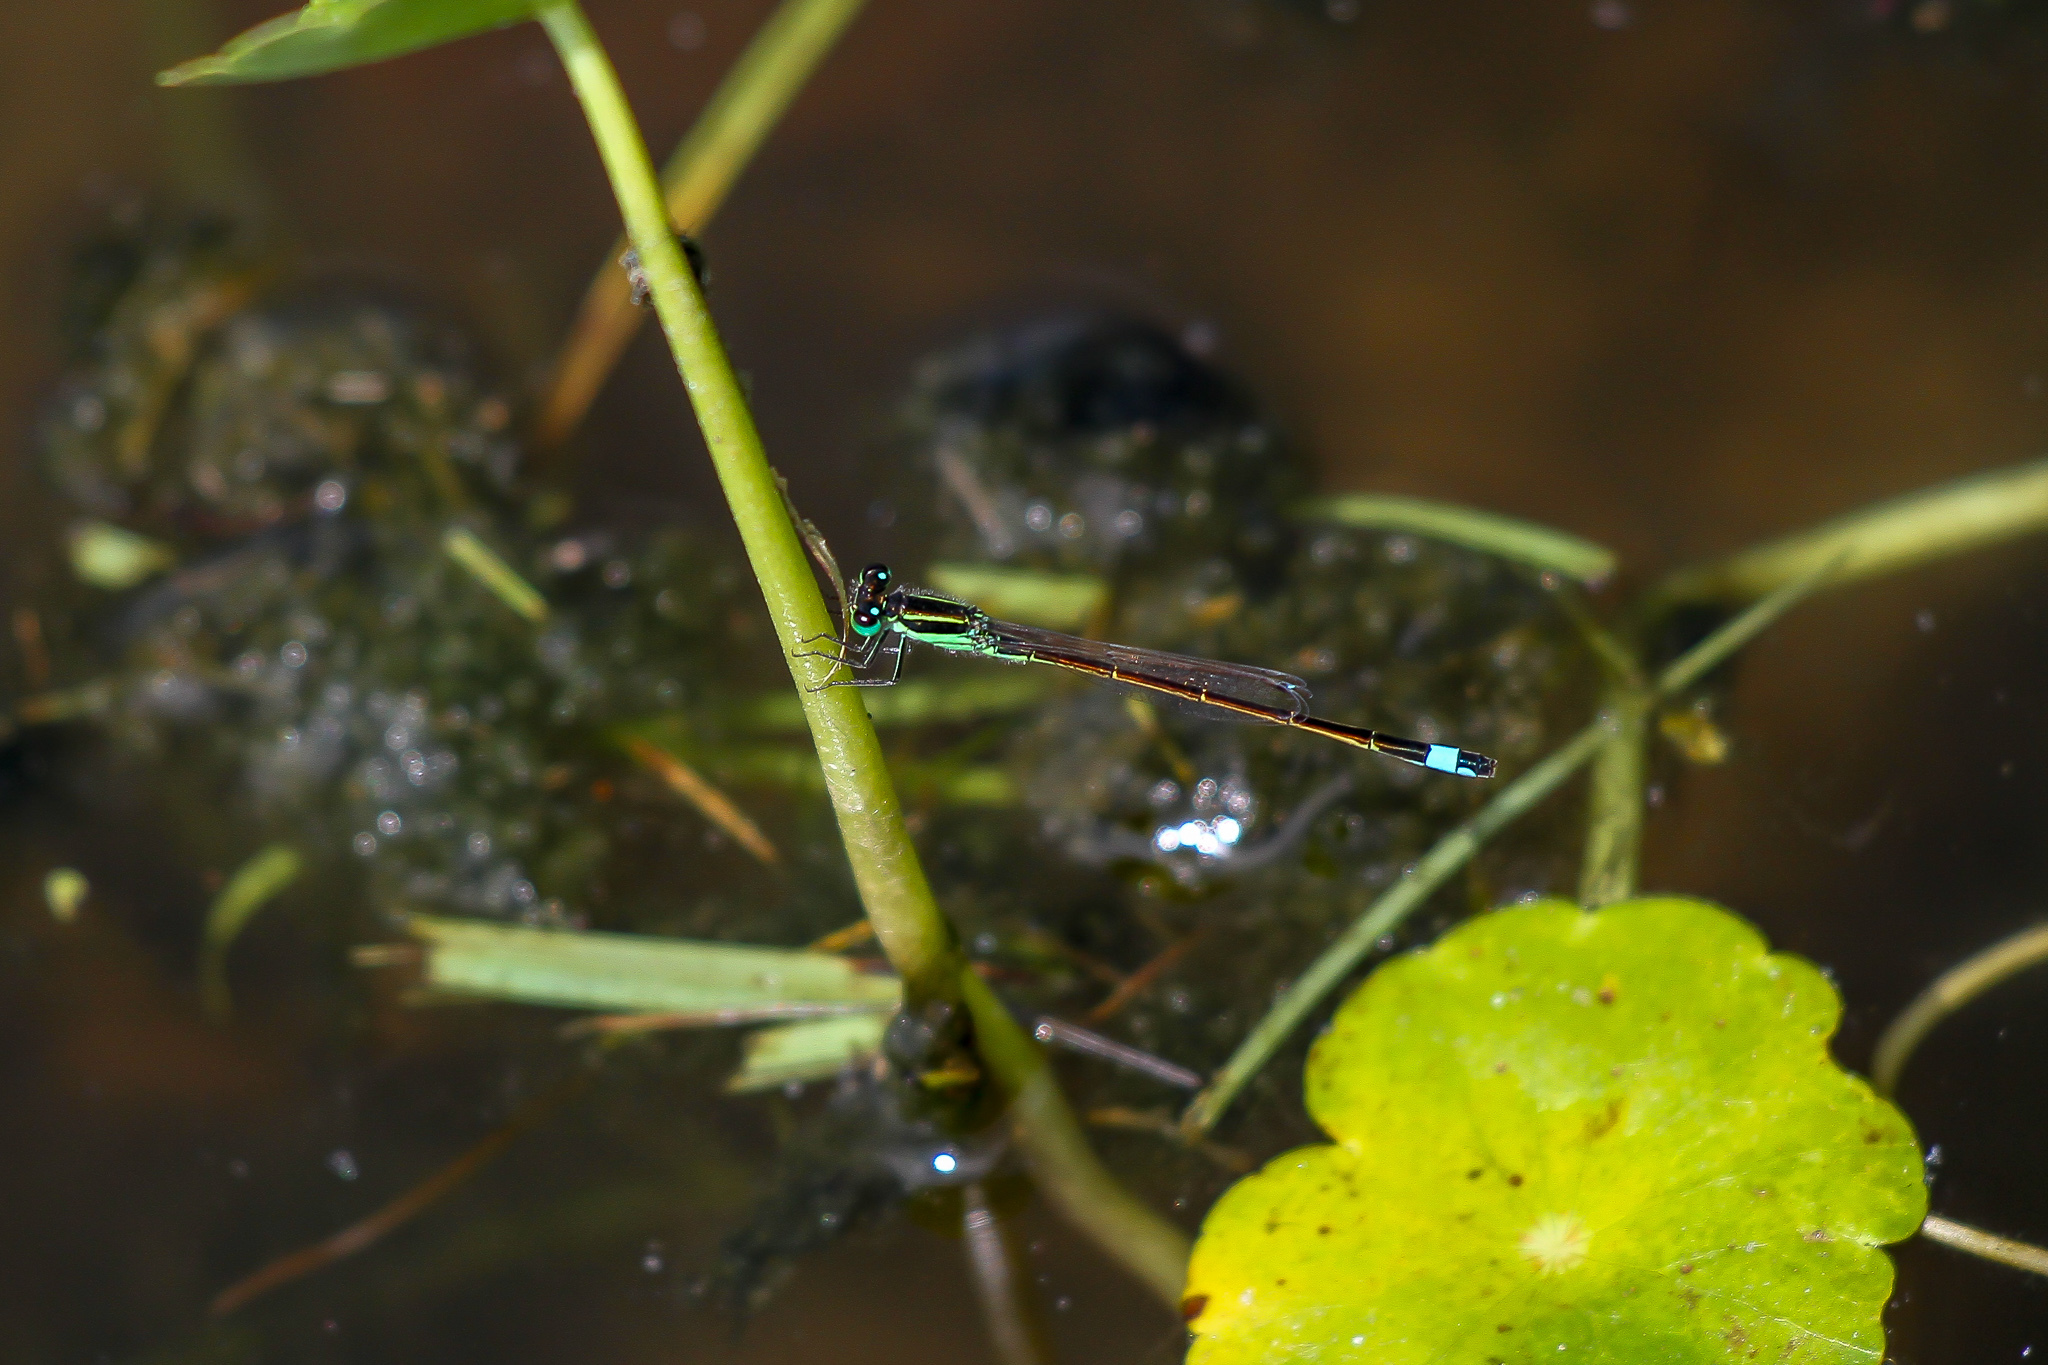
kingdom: Animalia
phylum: Arthropoda
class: Insecta
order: Odonata
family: Coenagrionidae
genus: Ischnura
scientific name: Ischnura ramburii
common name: Rambur's forktail
